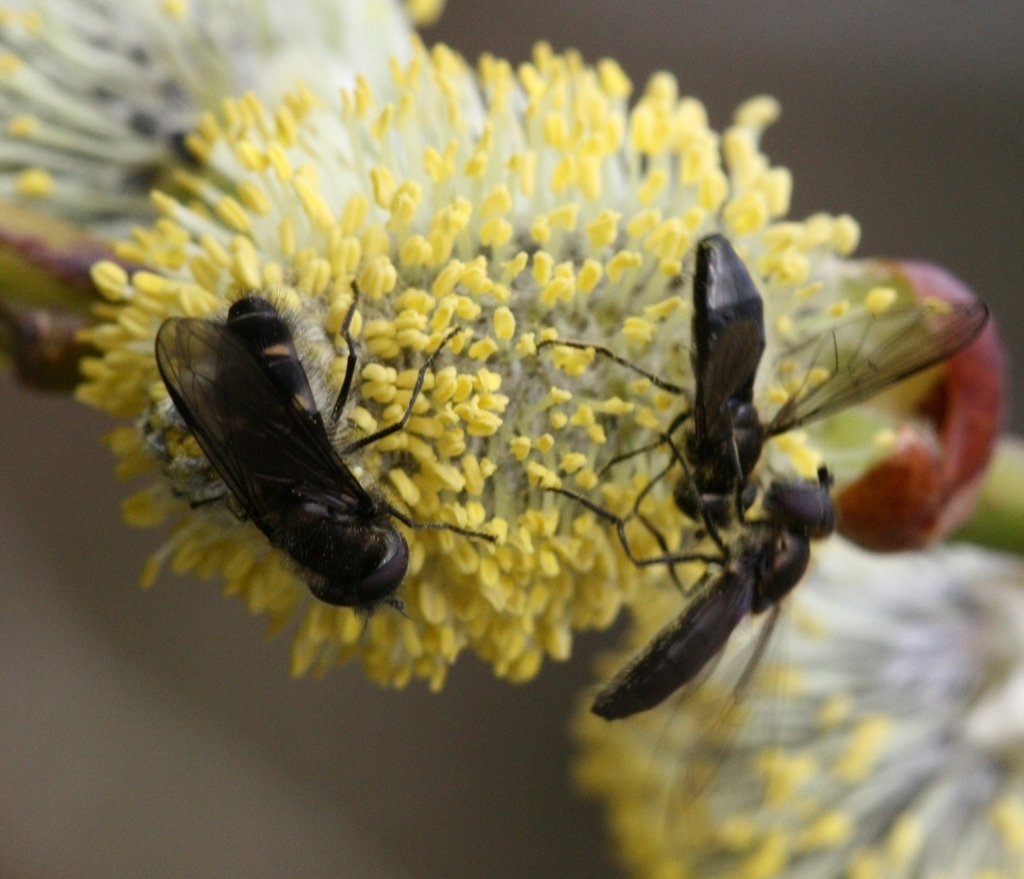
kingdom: Animalia
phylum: Arthropoda
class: Insecta
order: Diptera
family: Syrphidae
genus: Melangyna
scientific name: Melangyna quadrimaculata
